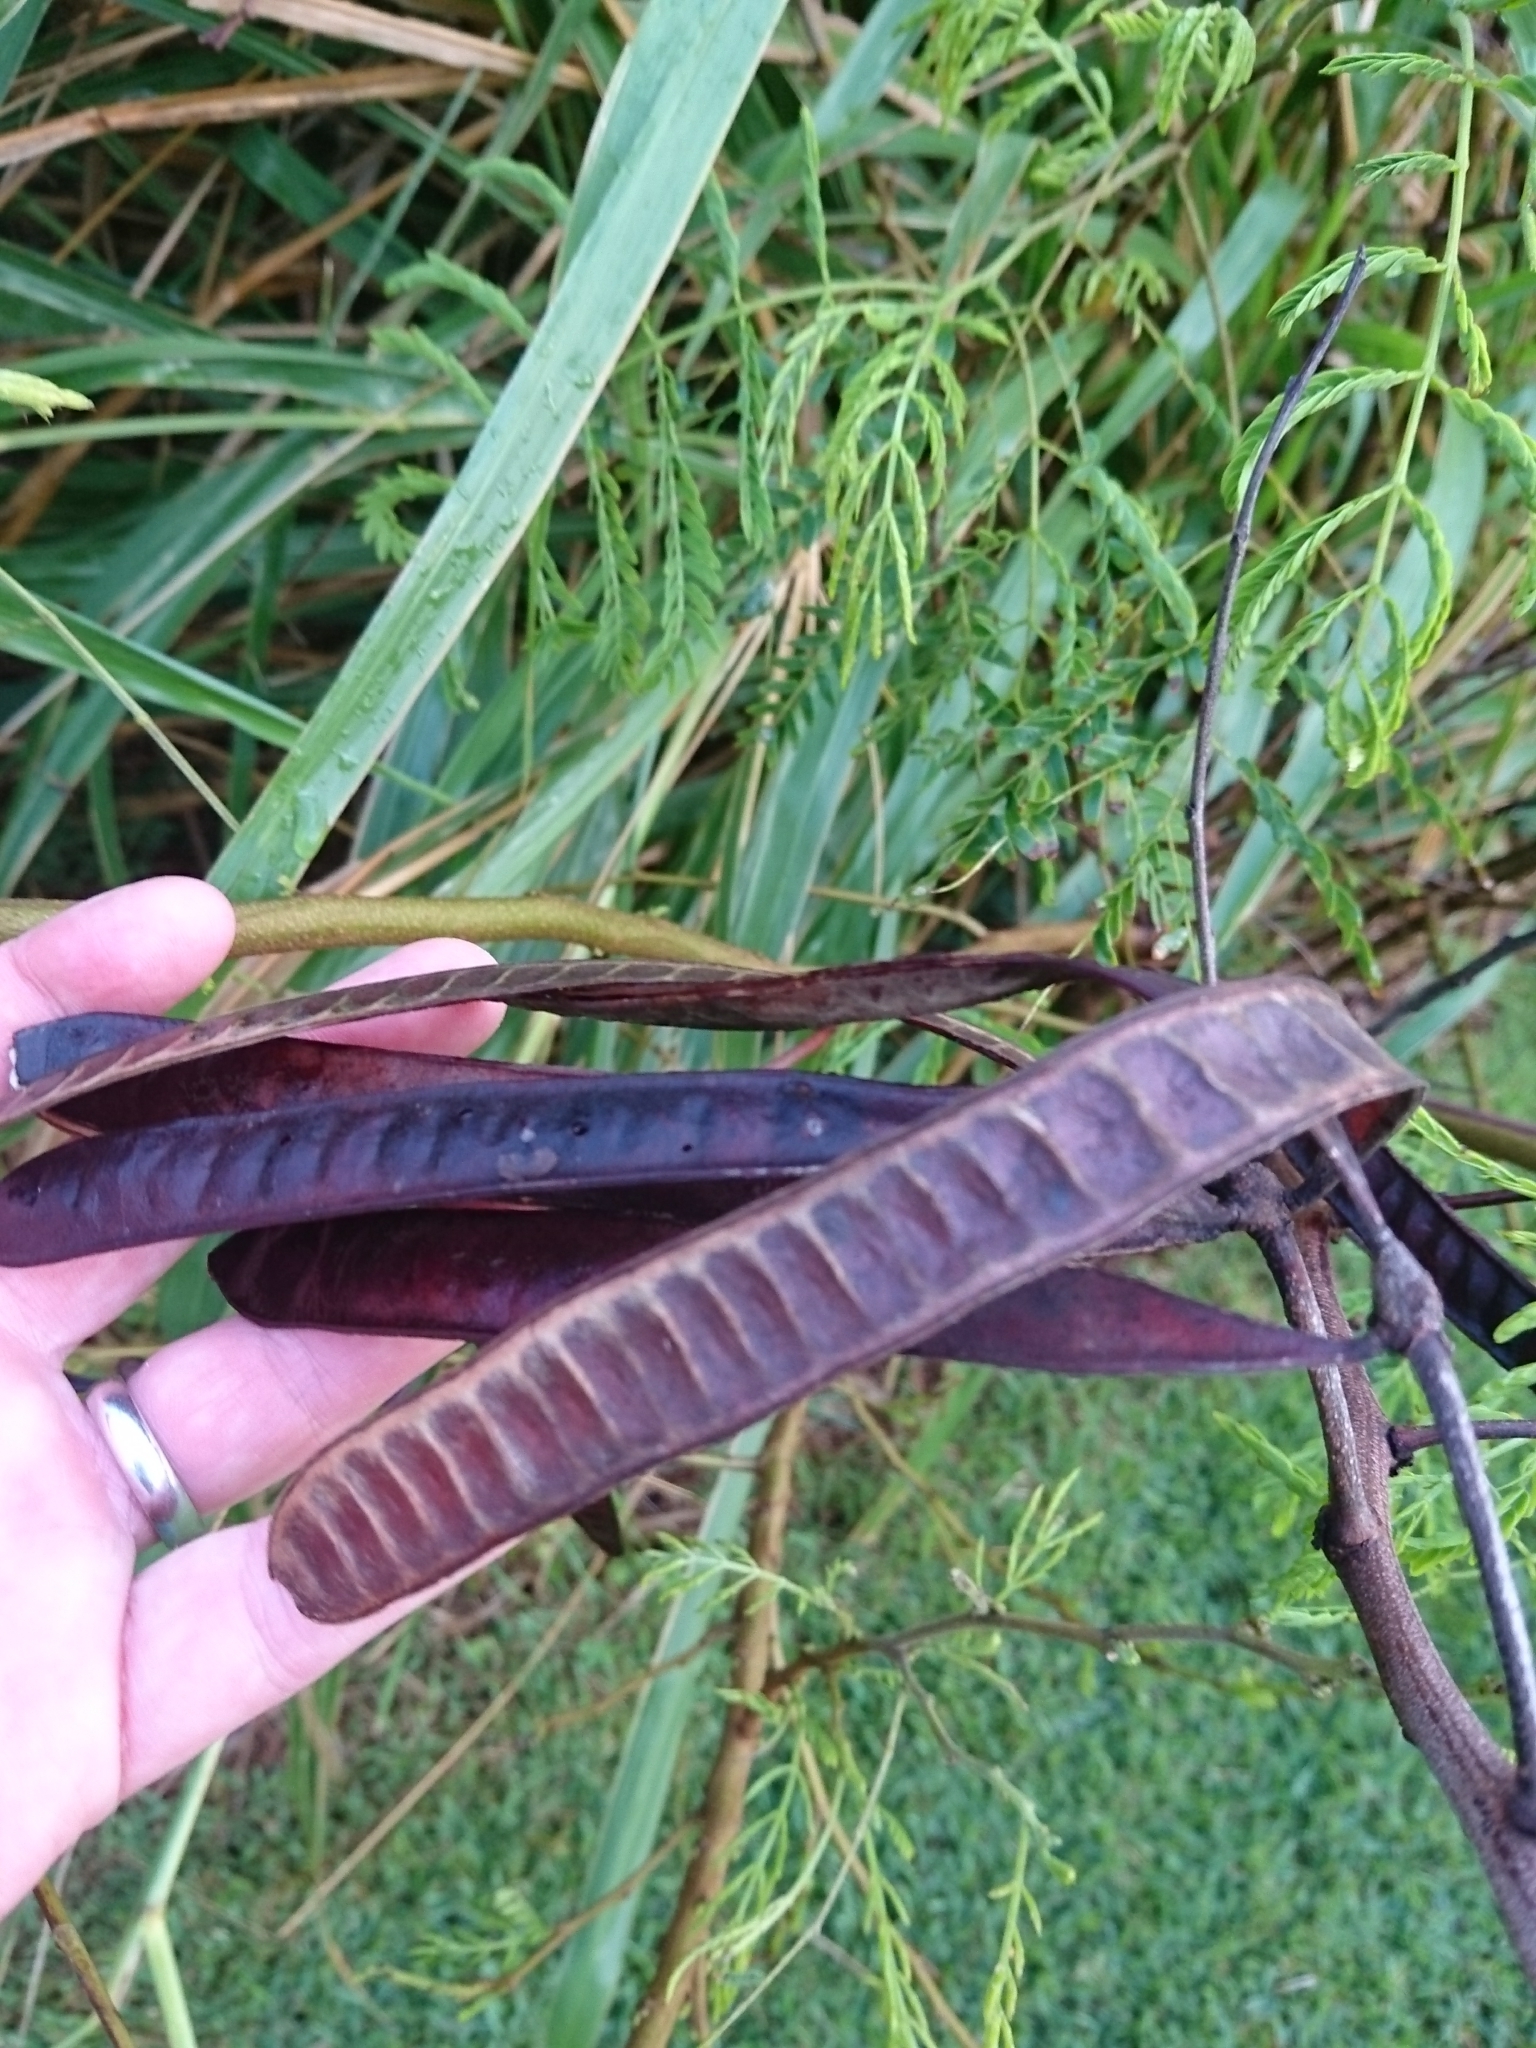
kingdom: Plantae
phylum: Tracheophyta
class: Magnoliopsida
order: Fabales
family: Fabaceae
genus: Leucaena
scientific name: Leucaena leucocephala
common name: White leadtree
